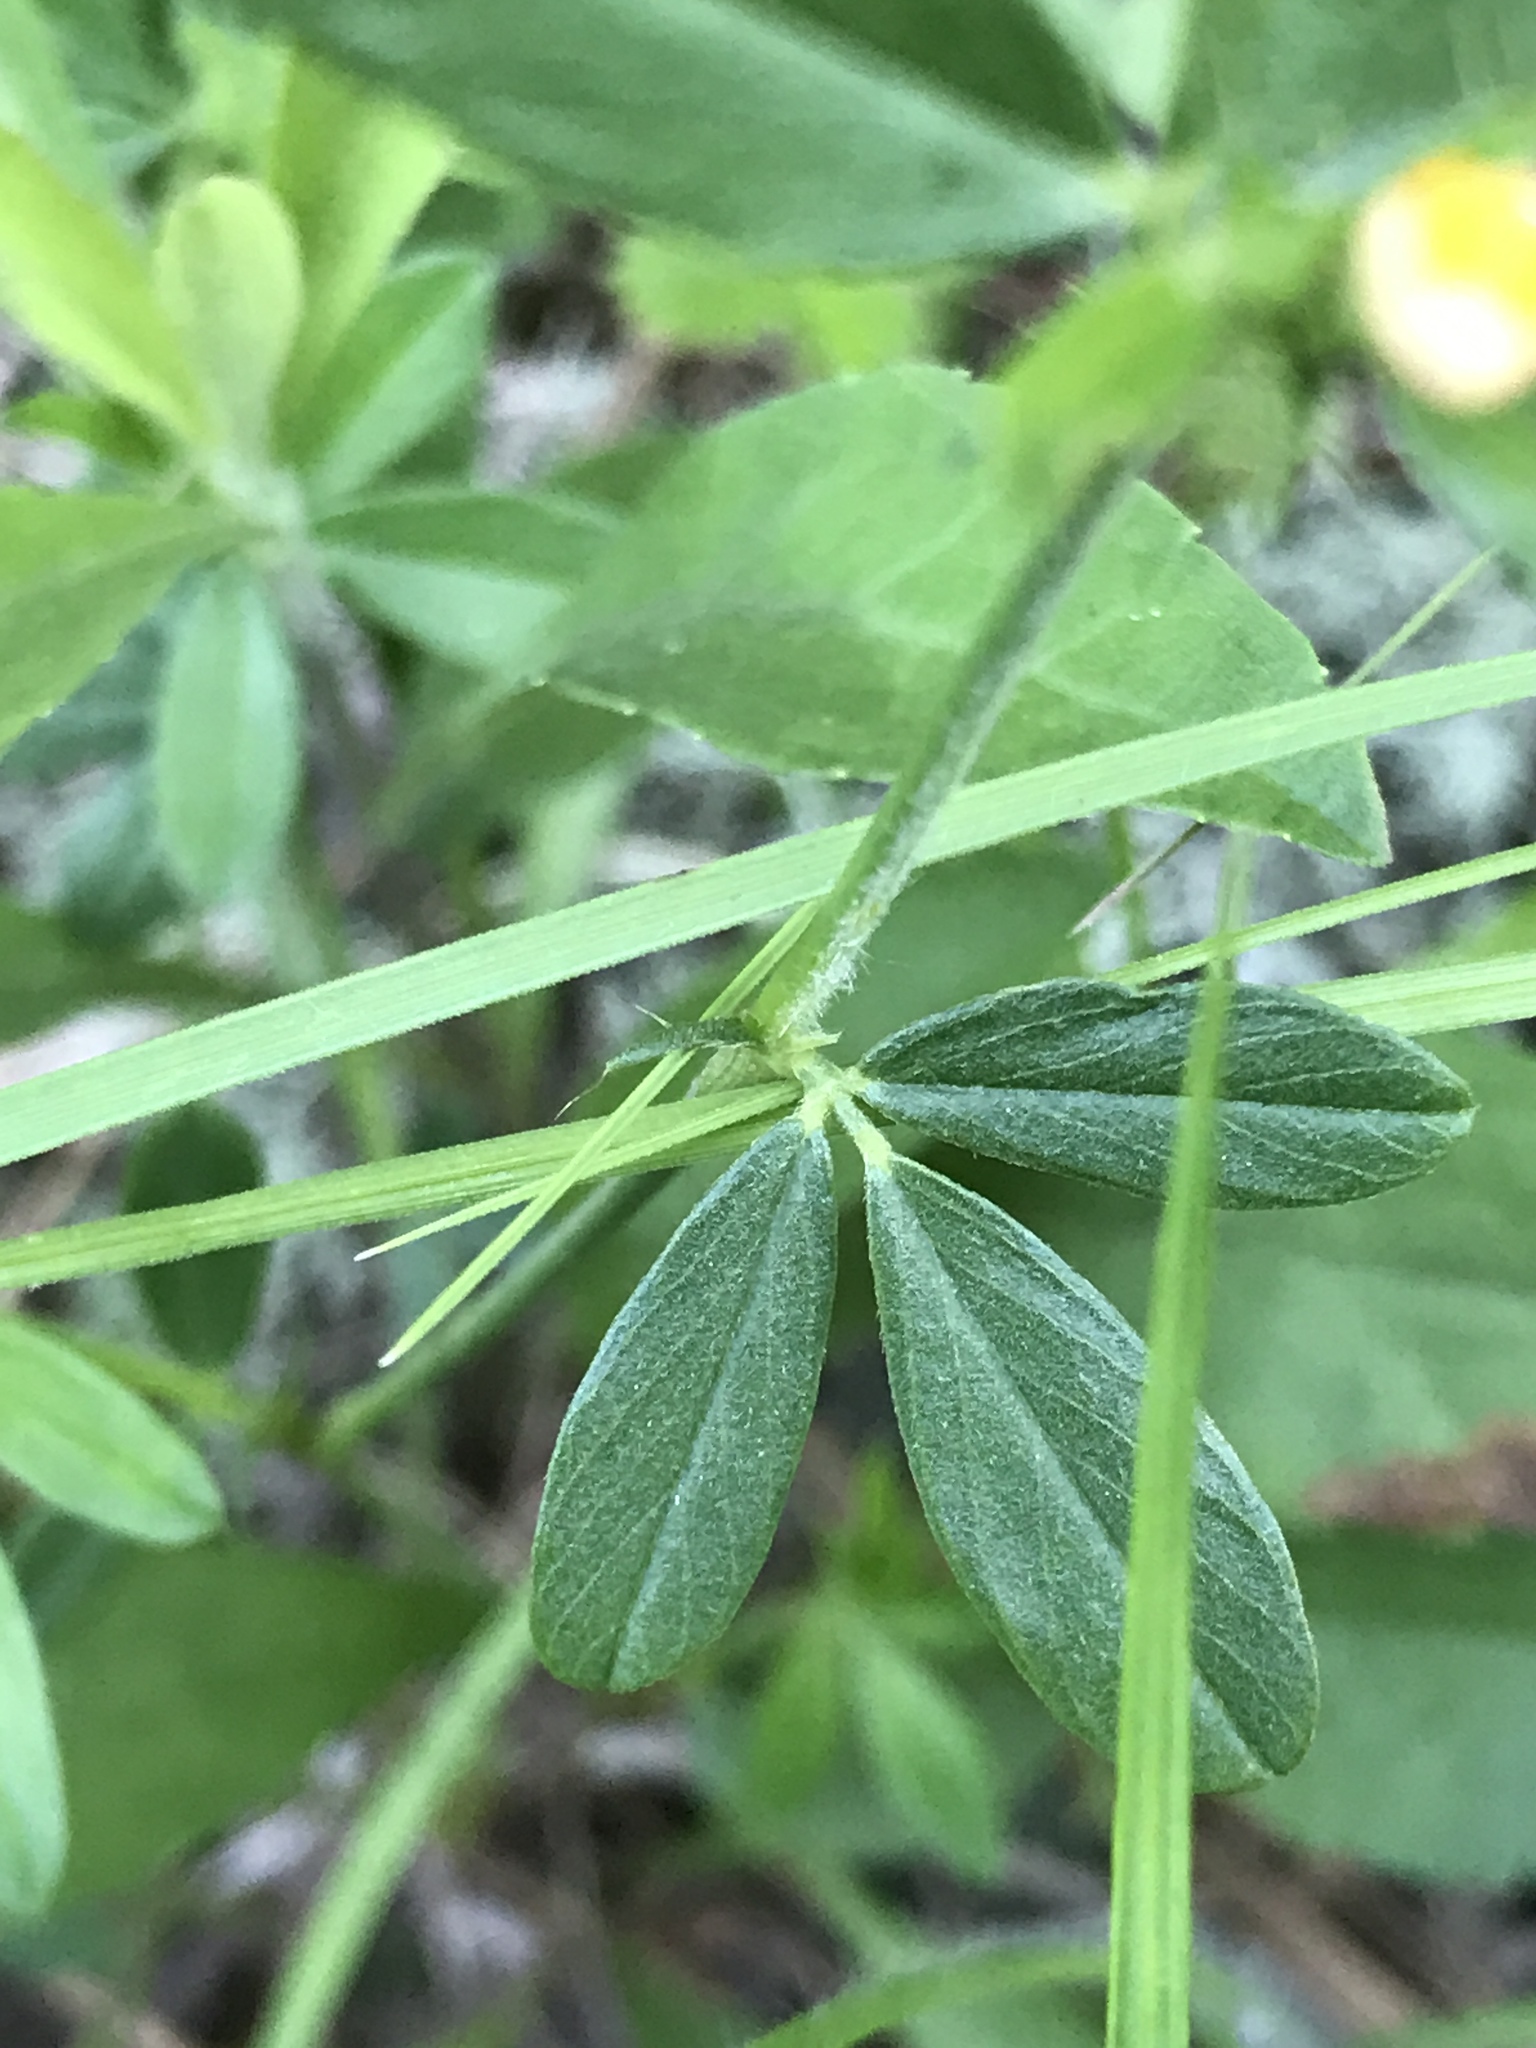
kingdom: Plantae
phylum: Tracheophyta
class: Magnoliopsida
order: Fabales
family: Fabaceae
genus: Stylosanthes
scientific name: Stylosanthes biflora
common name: Two-flower pencil-flower
